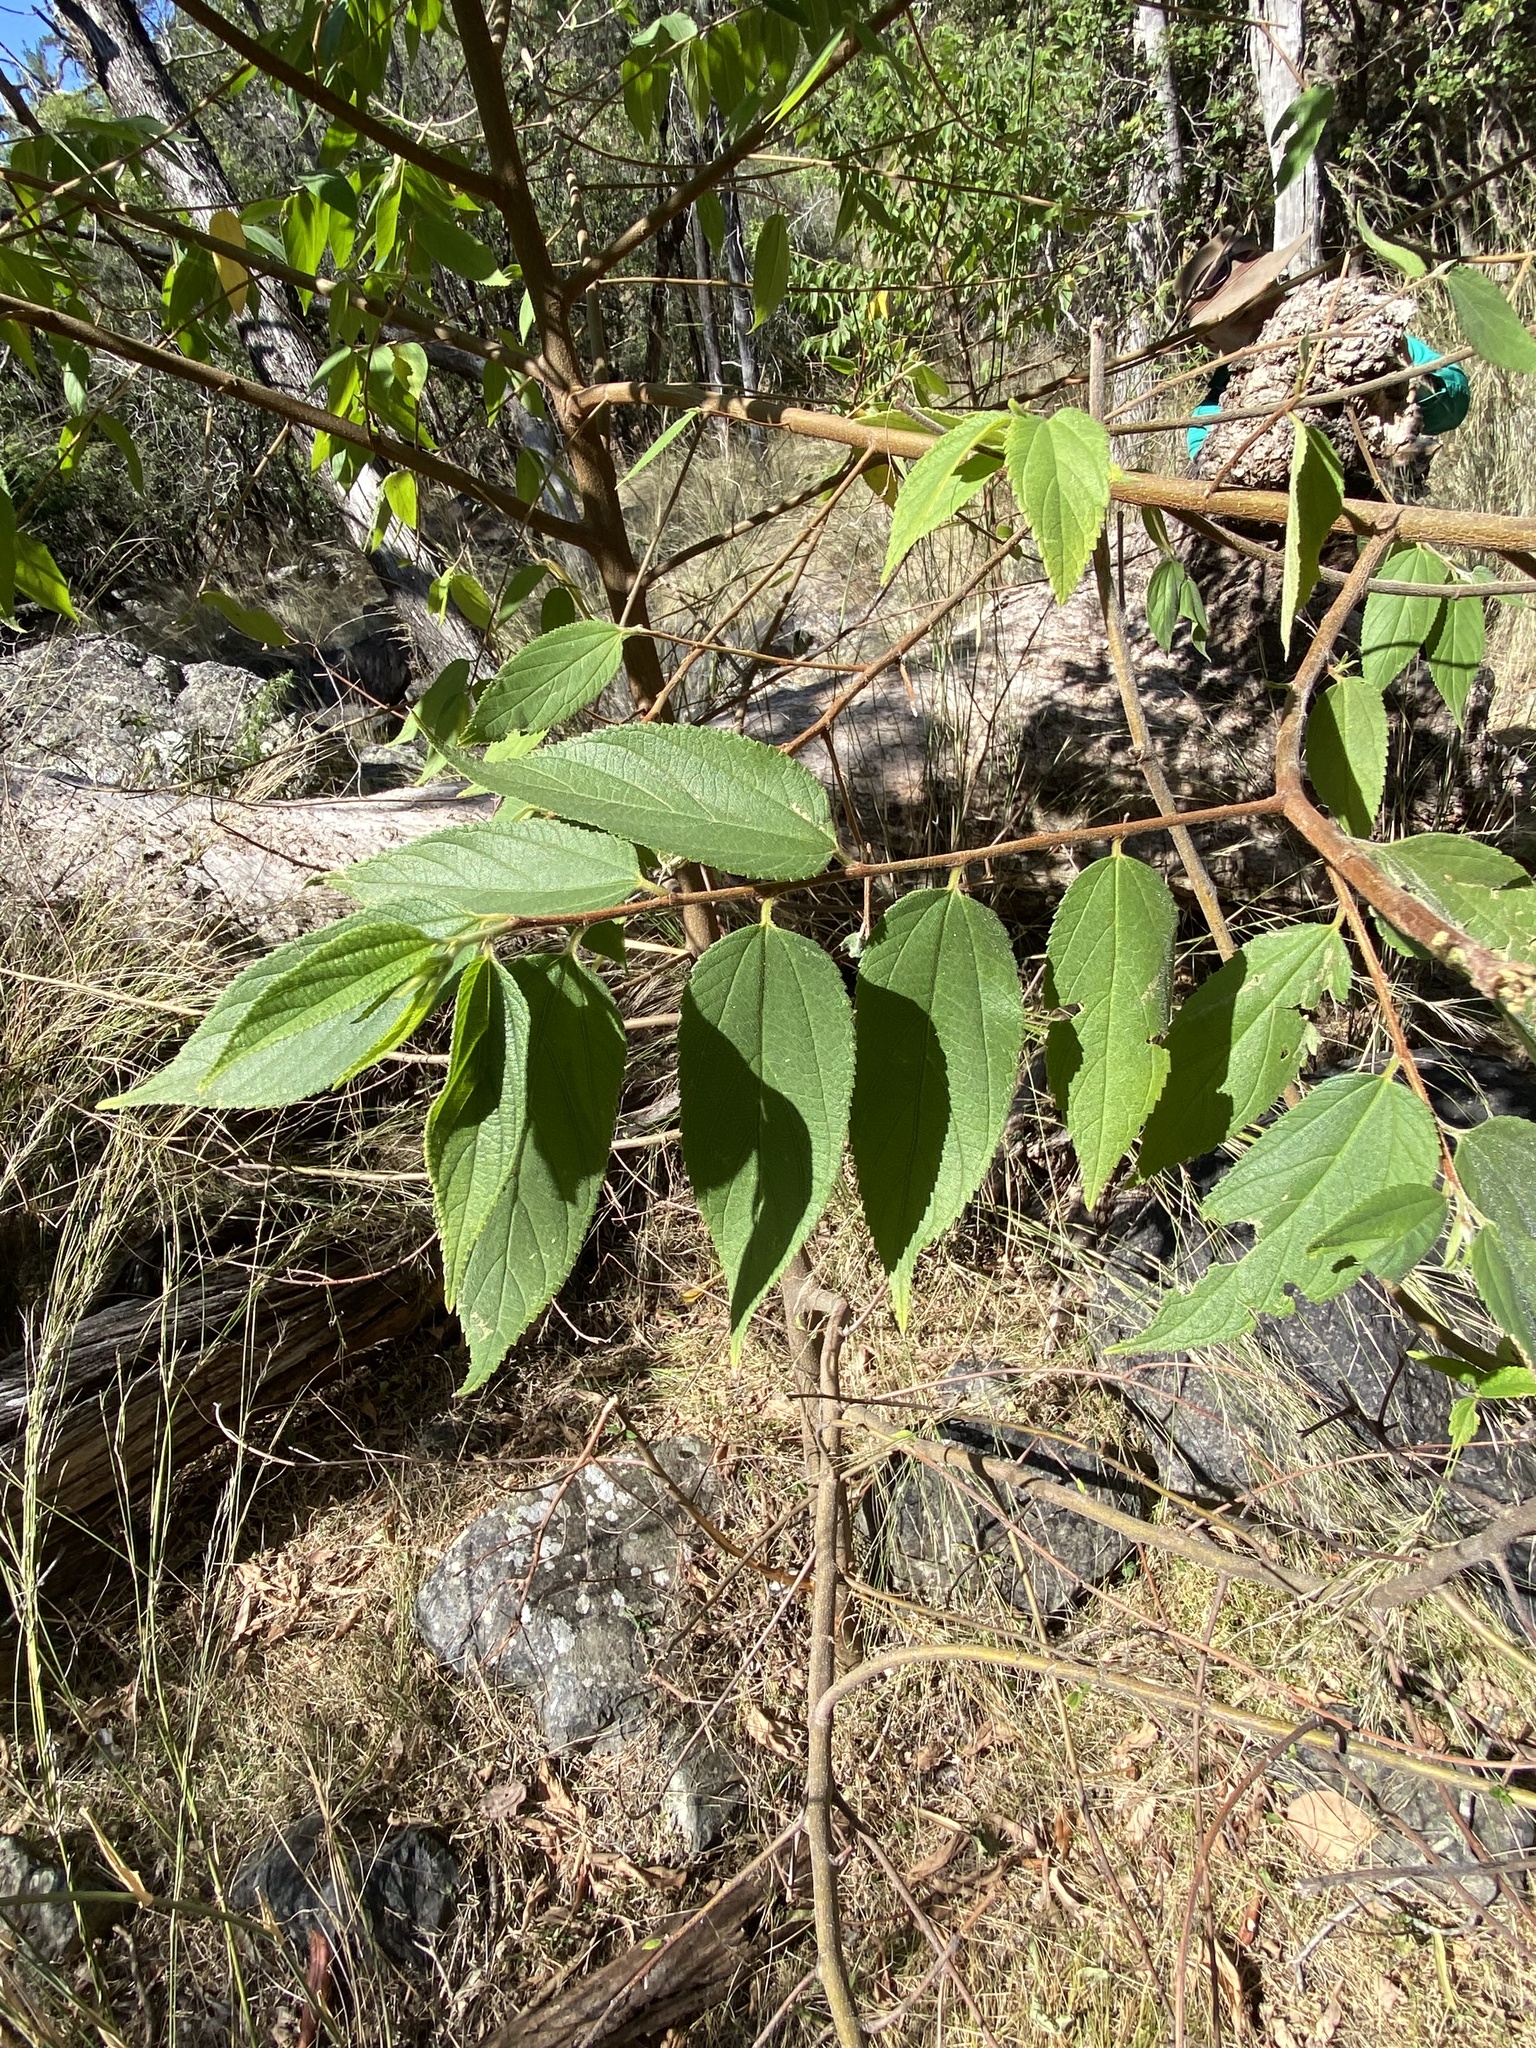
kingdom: Plantae
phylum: Tracheophyta
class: Magnoliopsida
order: Rosales
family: Cannabaceae
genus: Trema
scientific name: Trema tomentosum
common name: Peach-leaf-poisonbush
